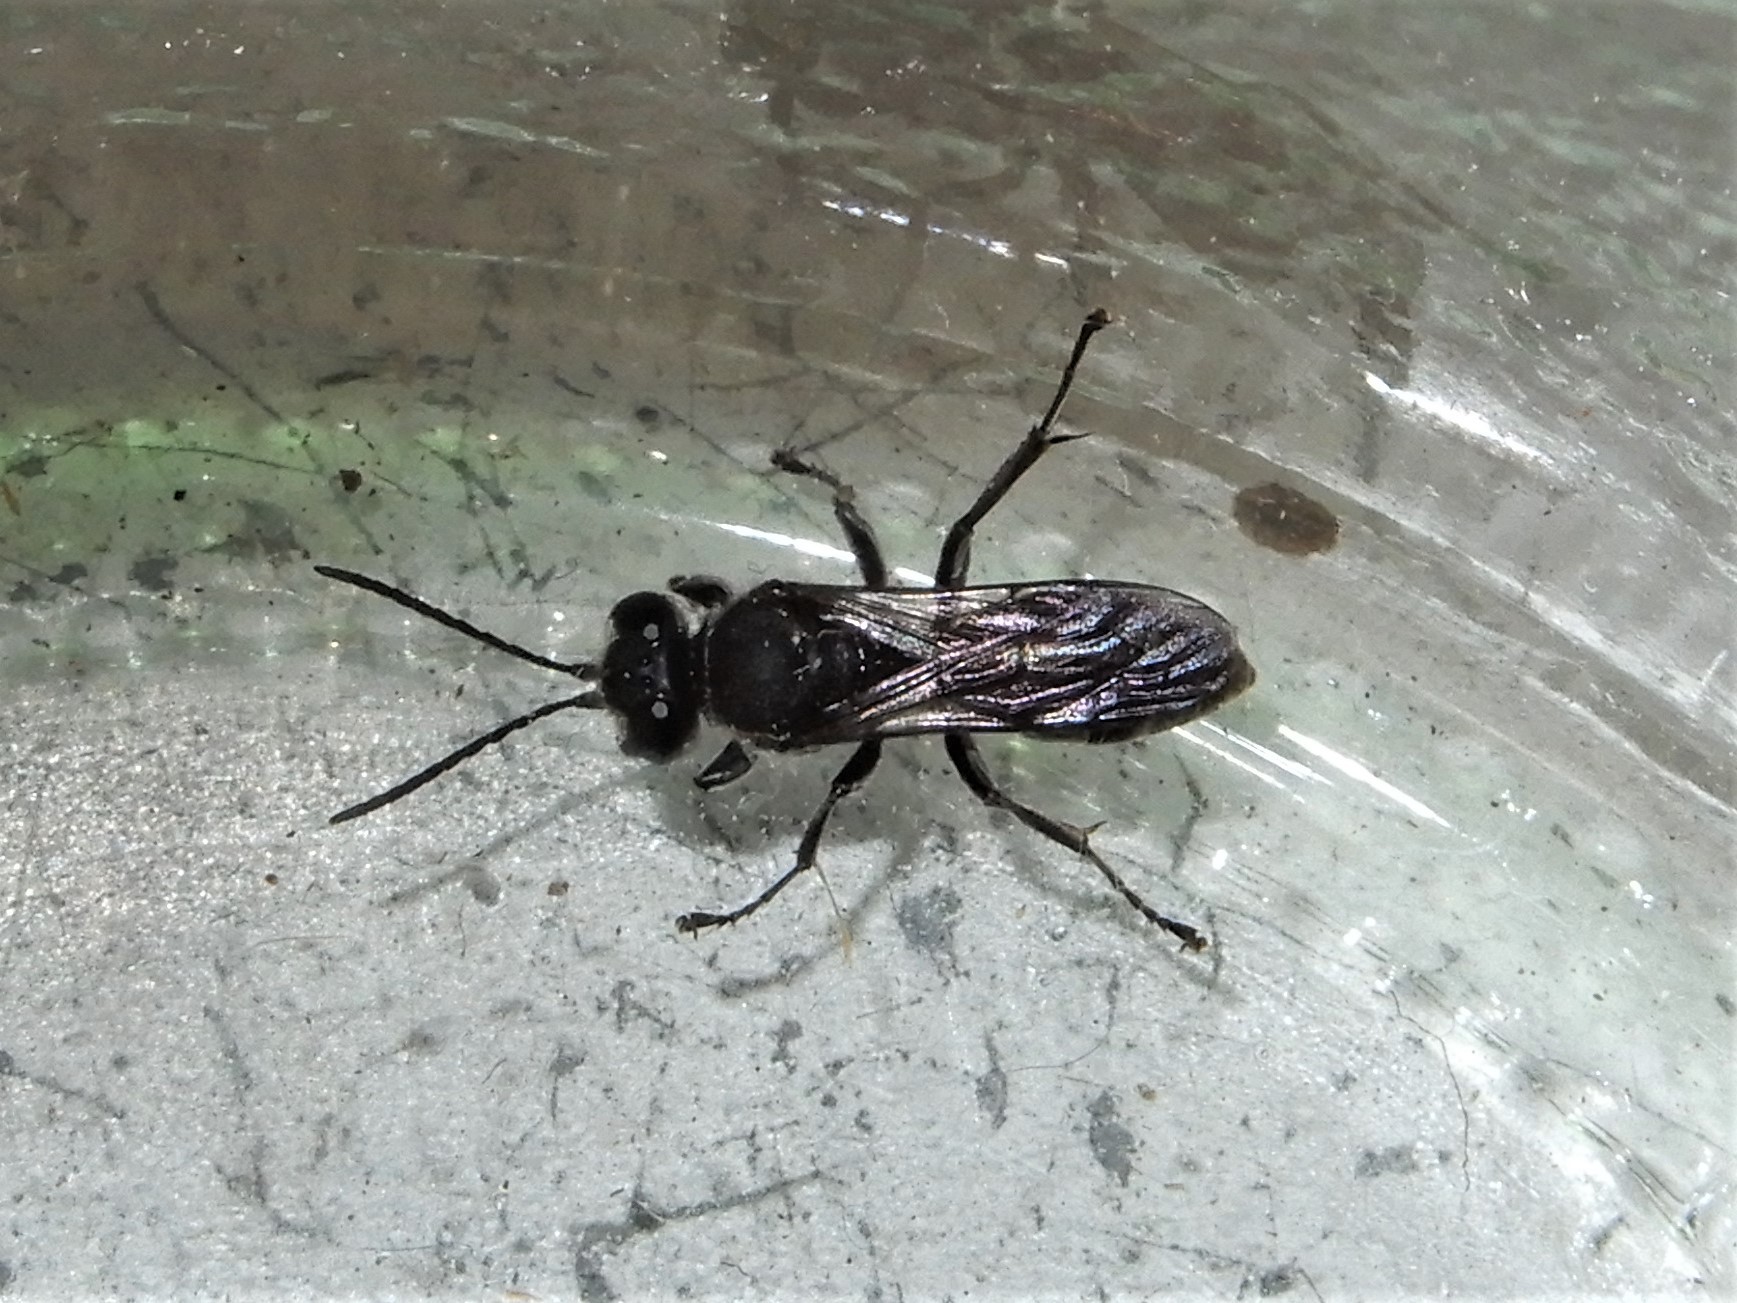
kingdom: Animalia
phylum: Arthropoda
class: Insecta
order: Hymenoptera
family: Crabronidae
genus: Pison
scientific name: Pison spinolae
